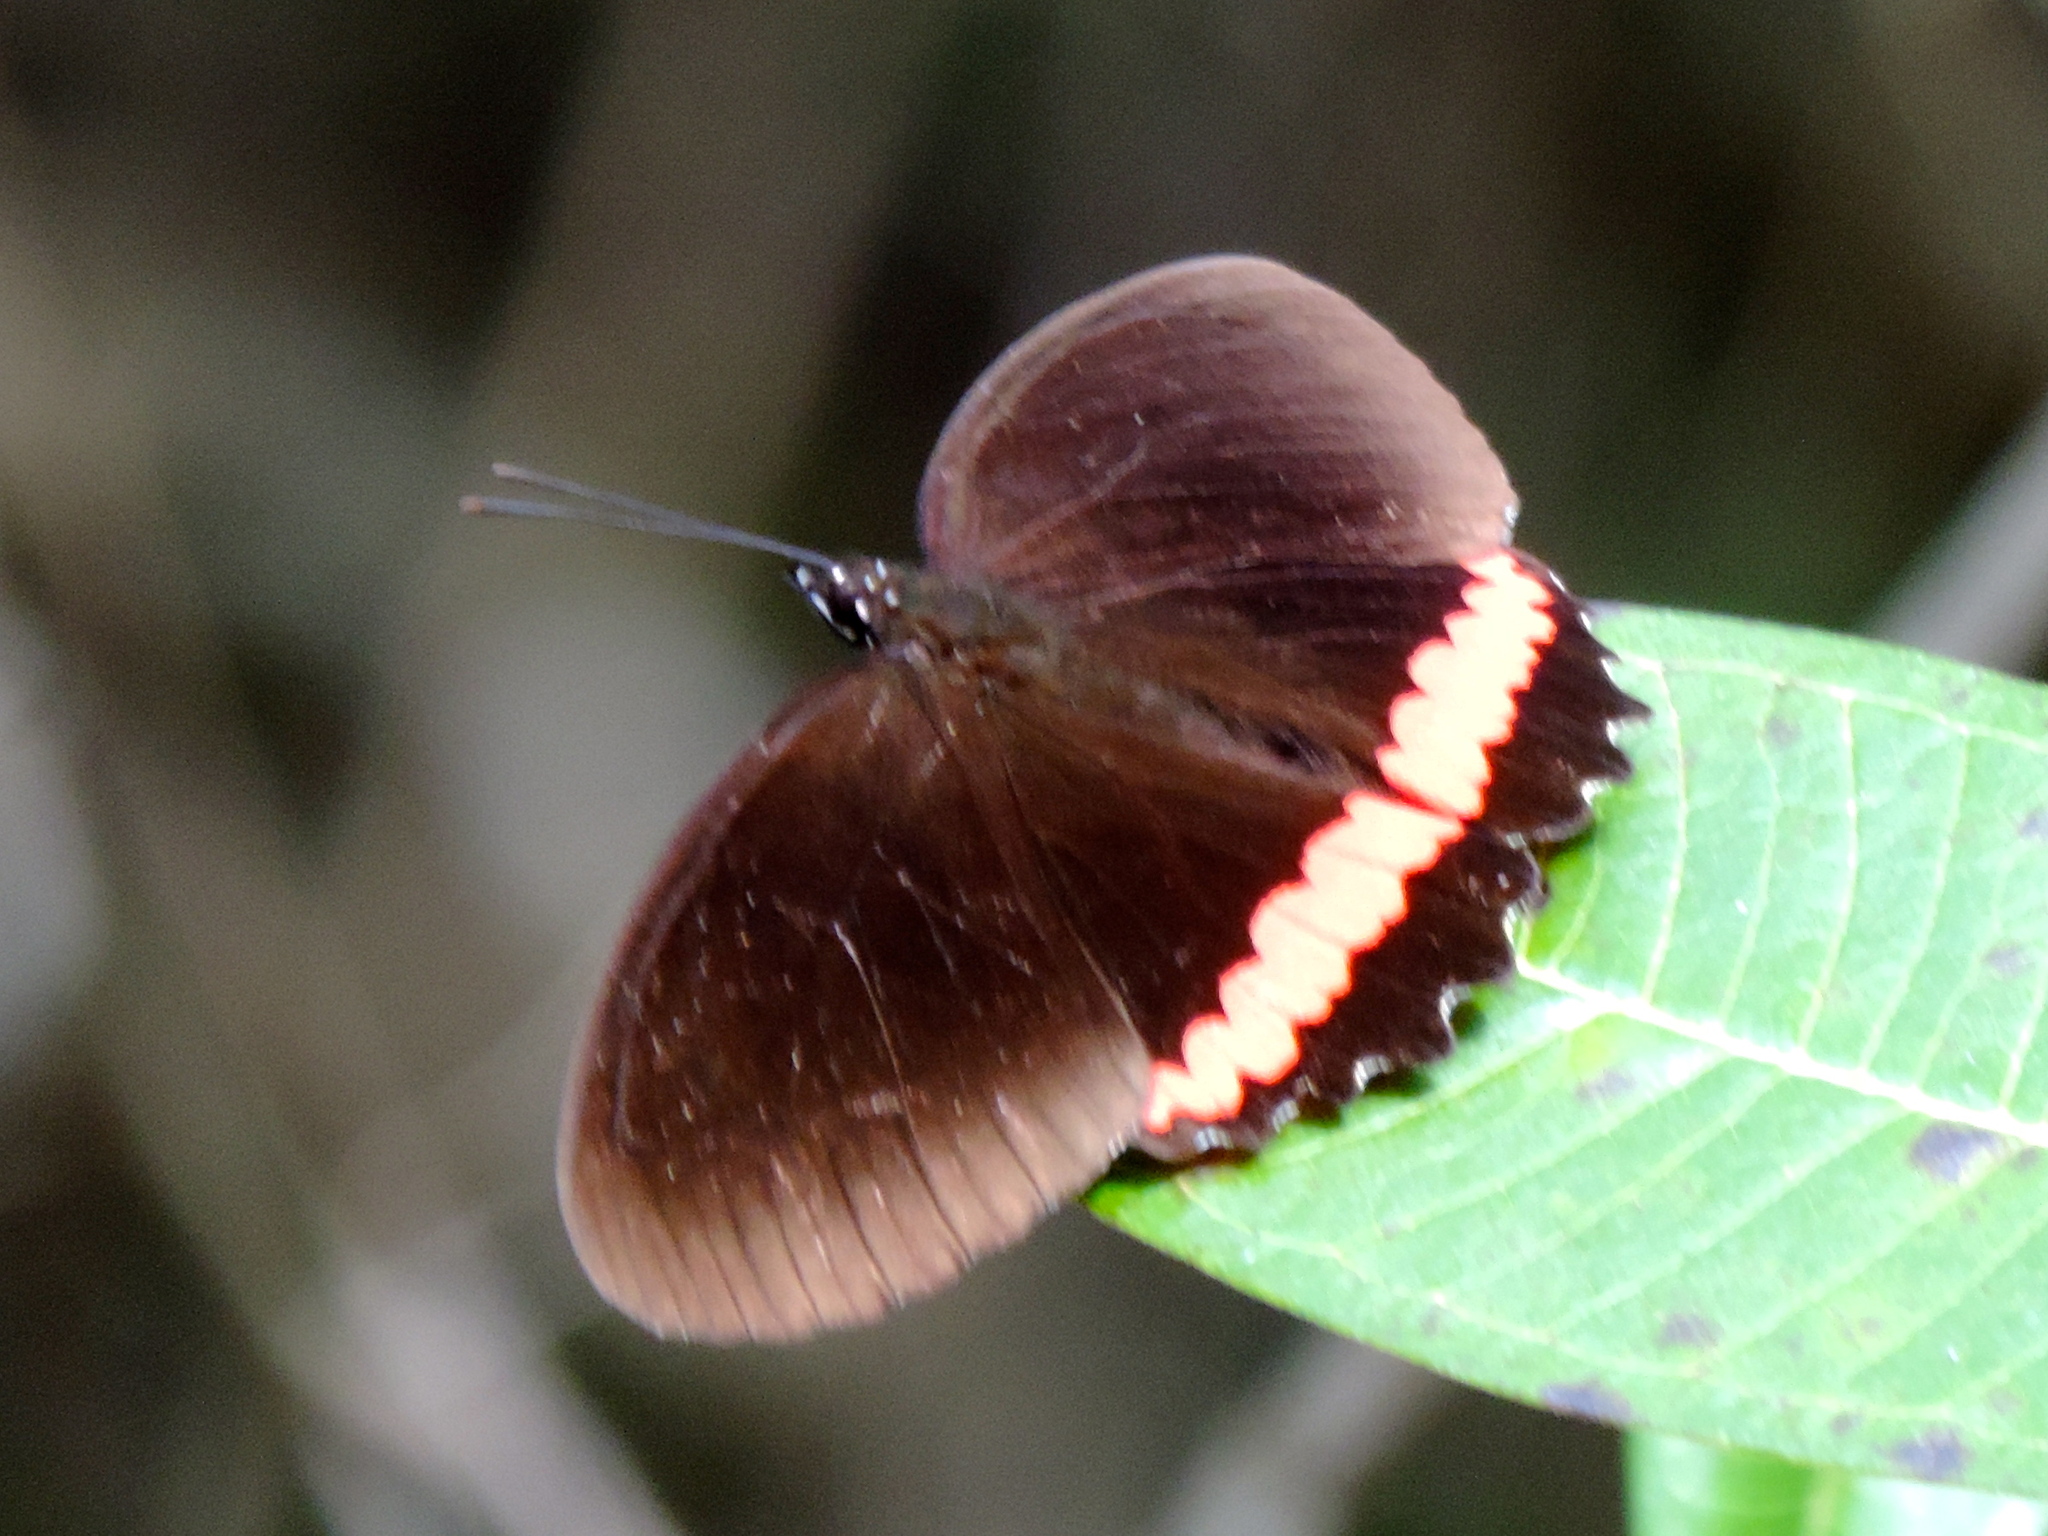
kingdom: Animalia
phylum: Arthropoda
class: Insecta
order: Lepidoptera
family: Nymphalidae
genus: Biblis
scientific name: Biblis
